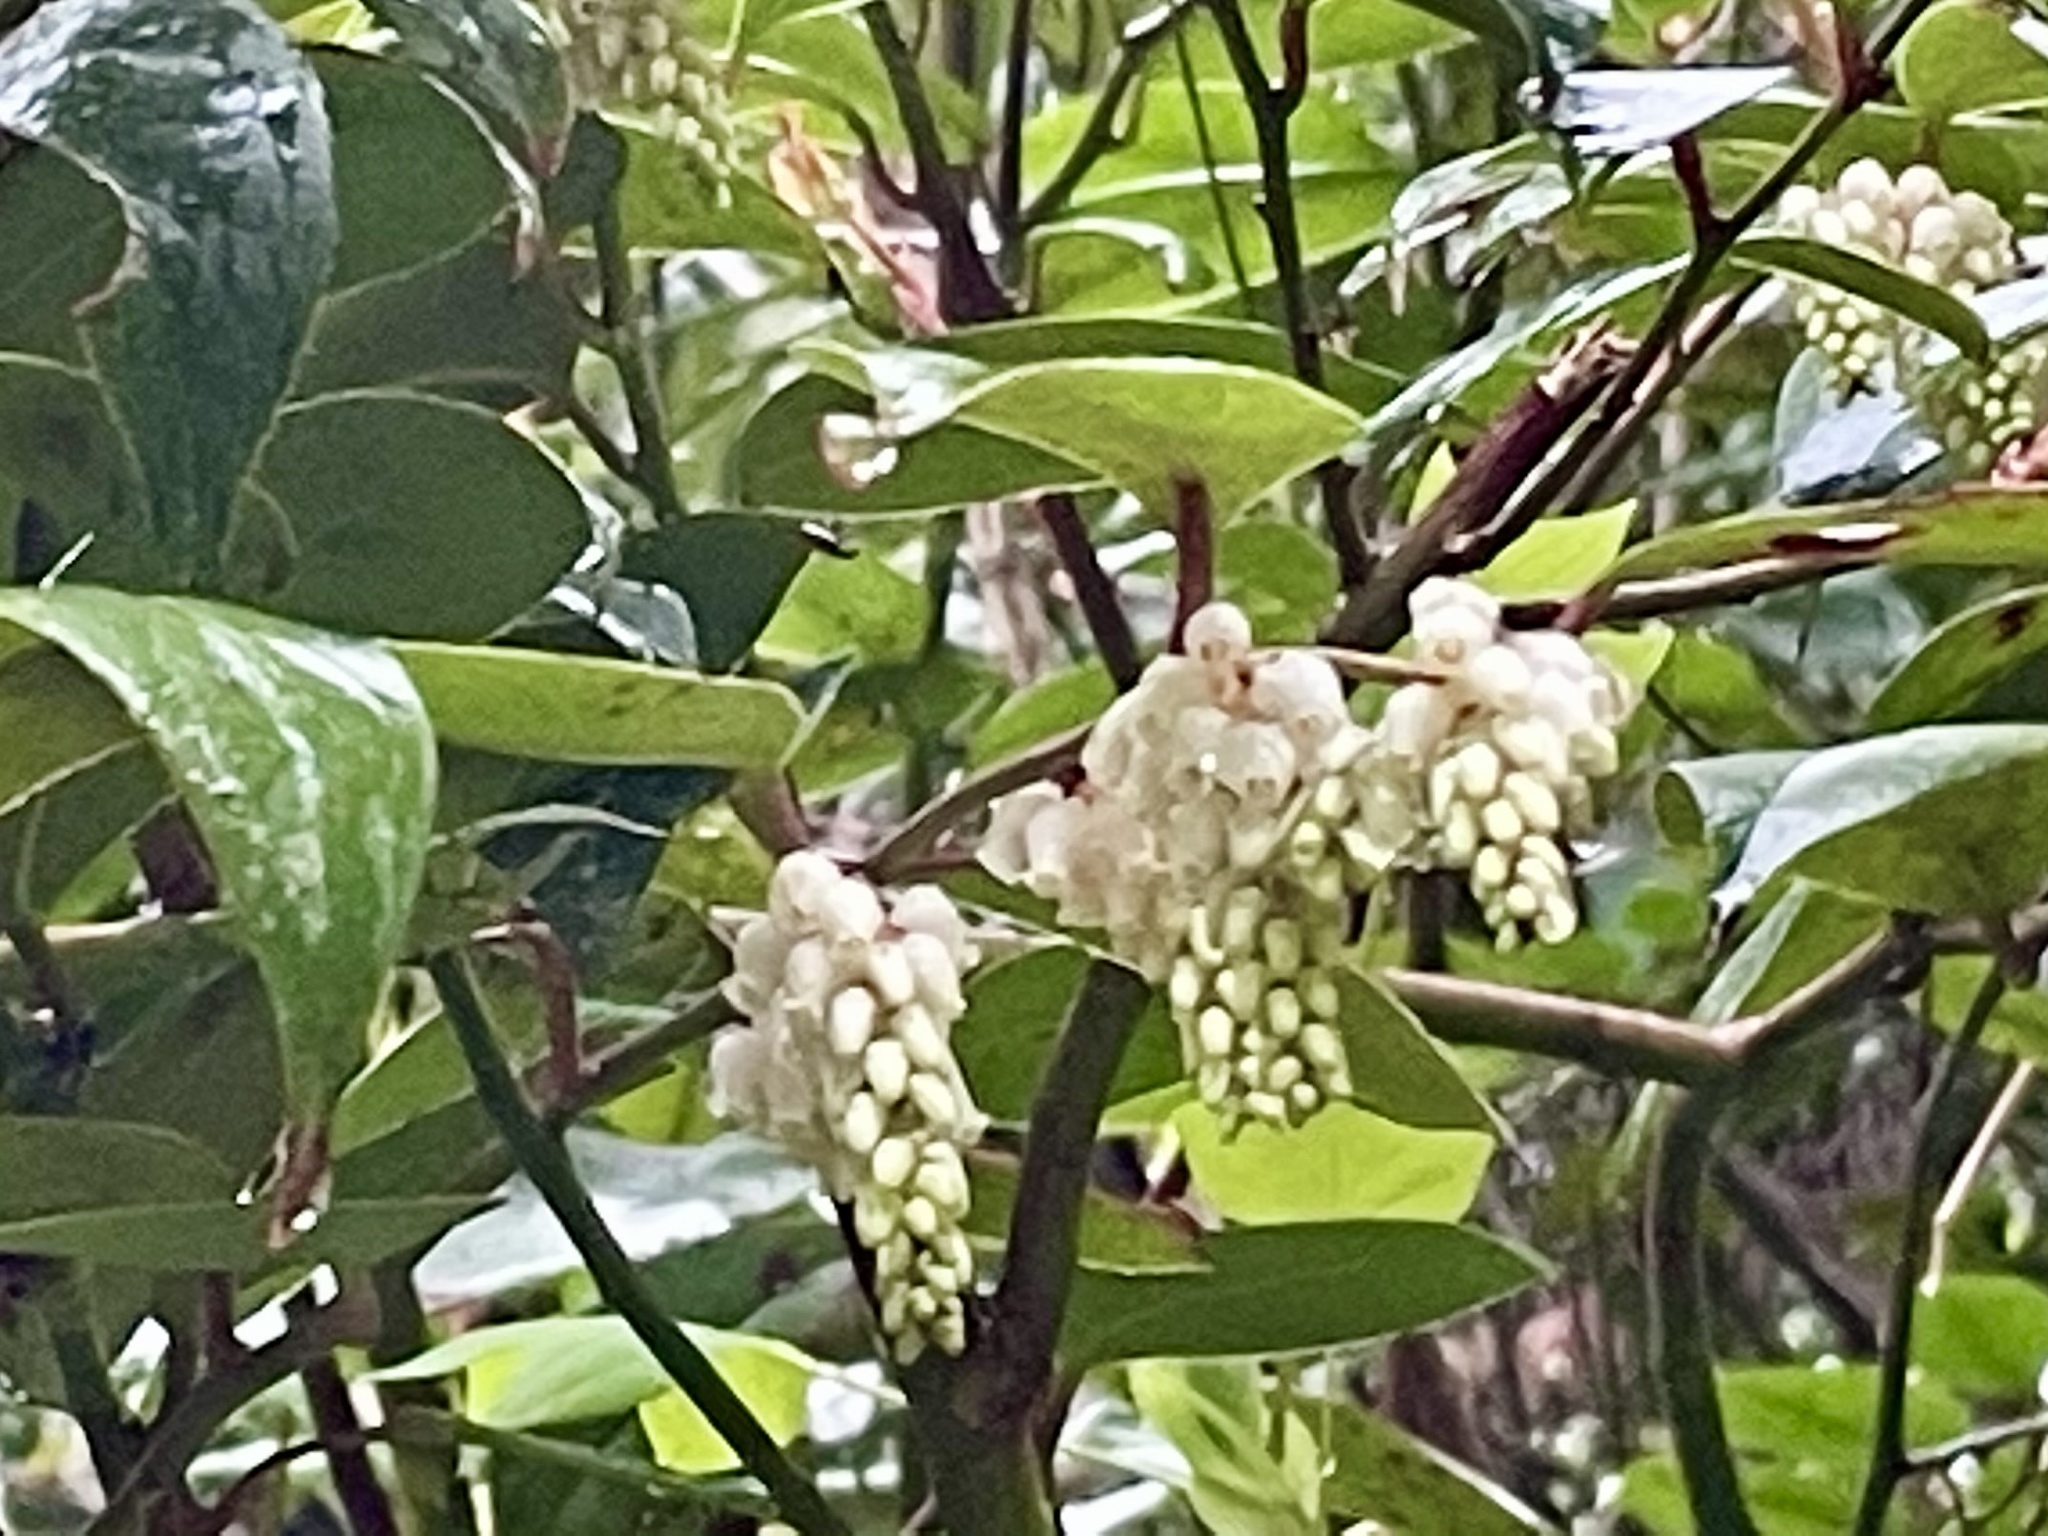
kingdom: Plantae
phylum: Tracheophyta
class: Magnoliopsida
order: Ericales
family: Ericaceae
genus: Leucothoe
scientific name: Leucothoe fontanesiana
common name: Fetterbush
